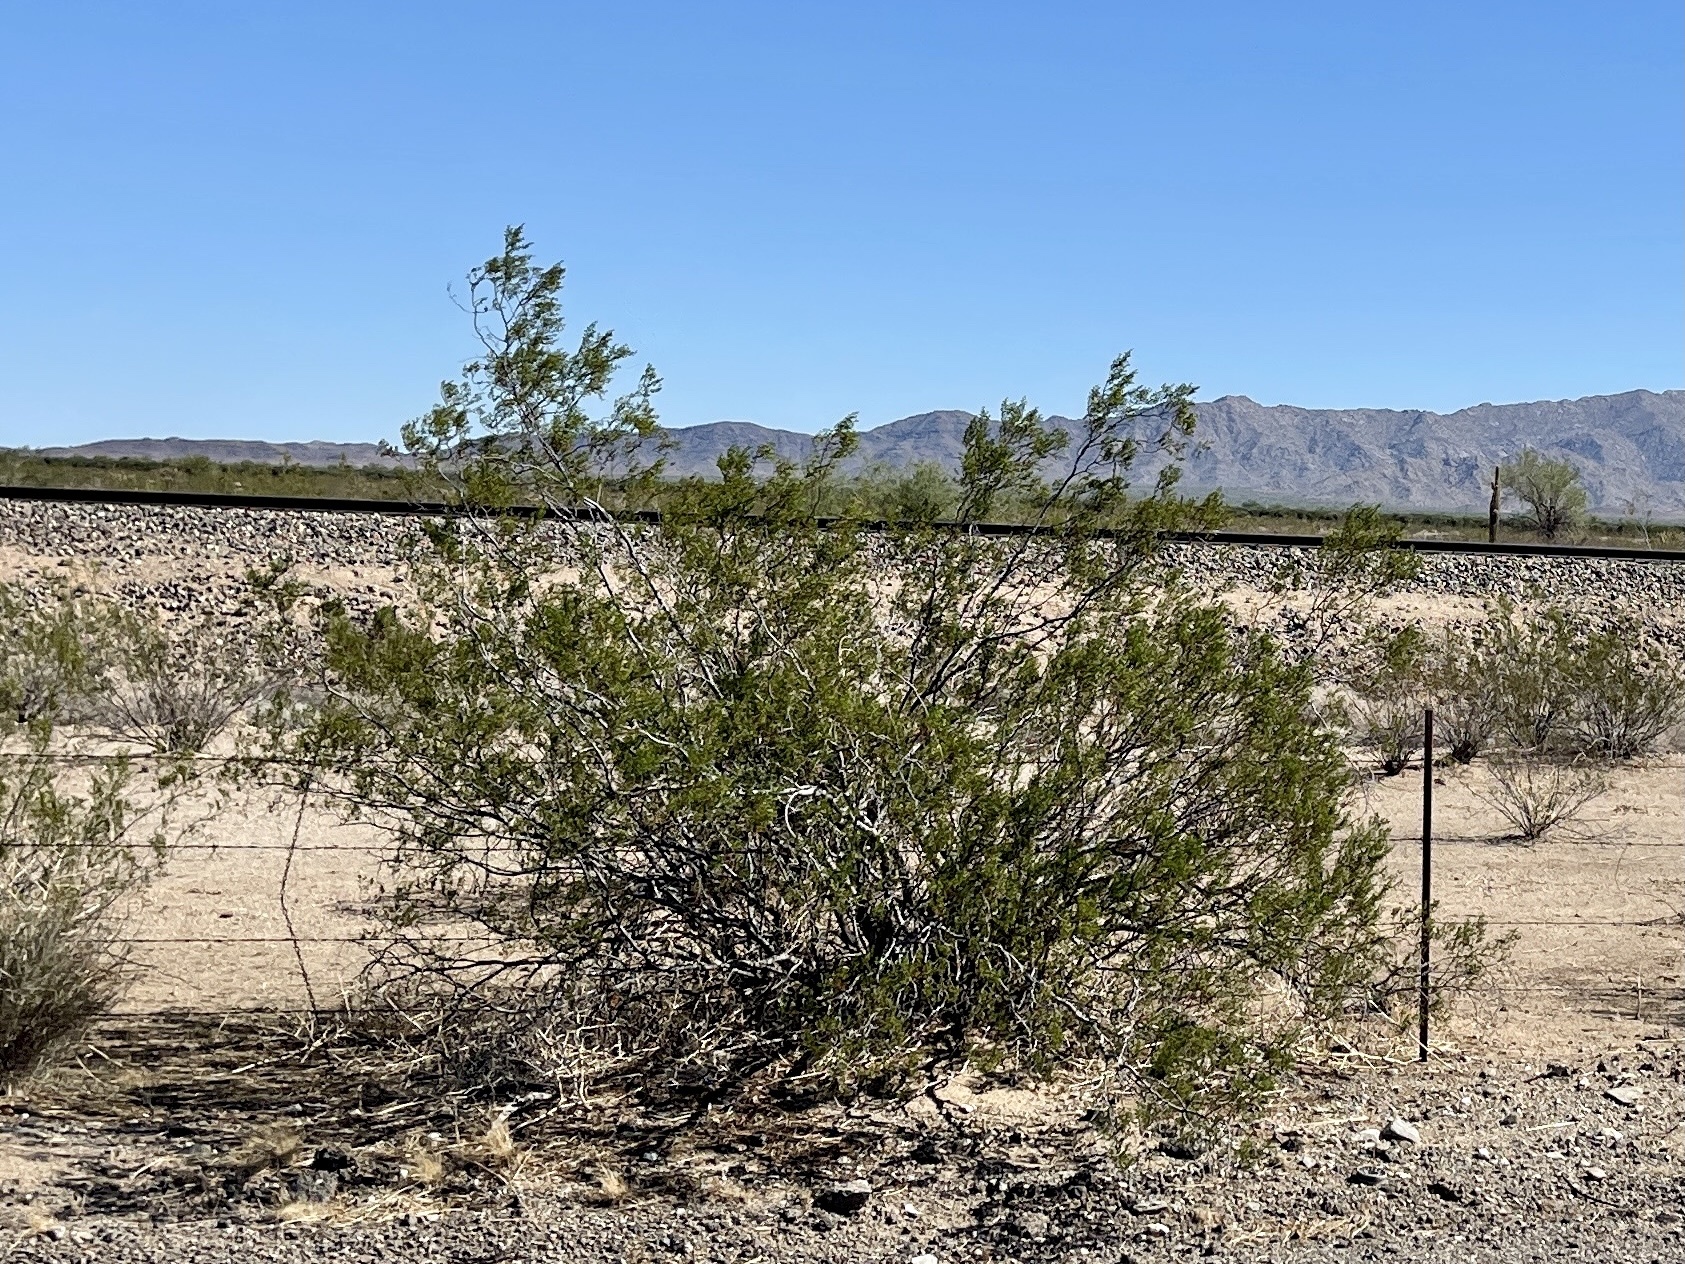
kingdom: Plantae
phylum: Tracheophyta
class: Magnoliopsida
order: Zygophyllales
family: Zygophyllaceae
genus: Larrea
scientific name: Larrea tridentata
